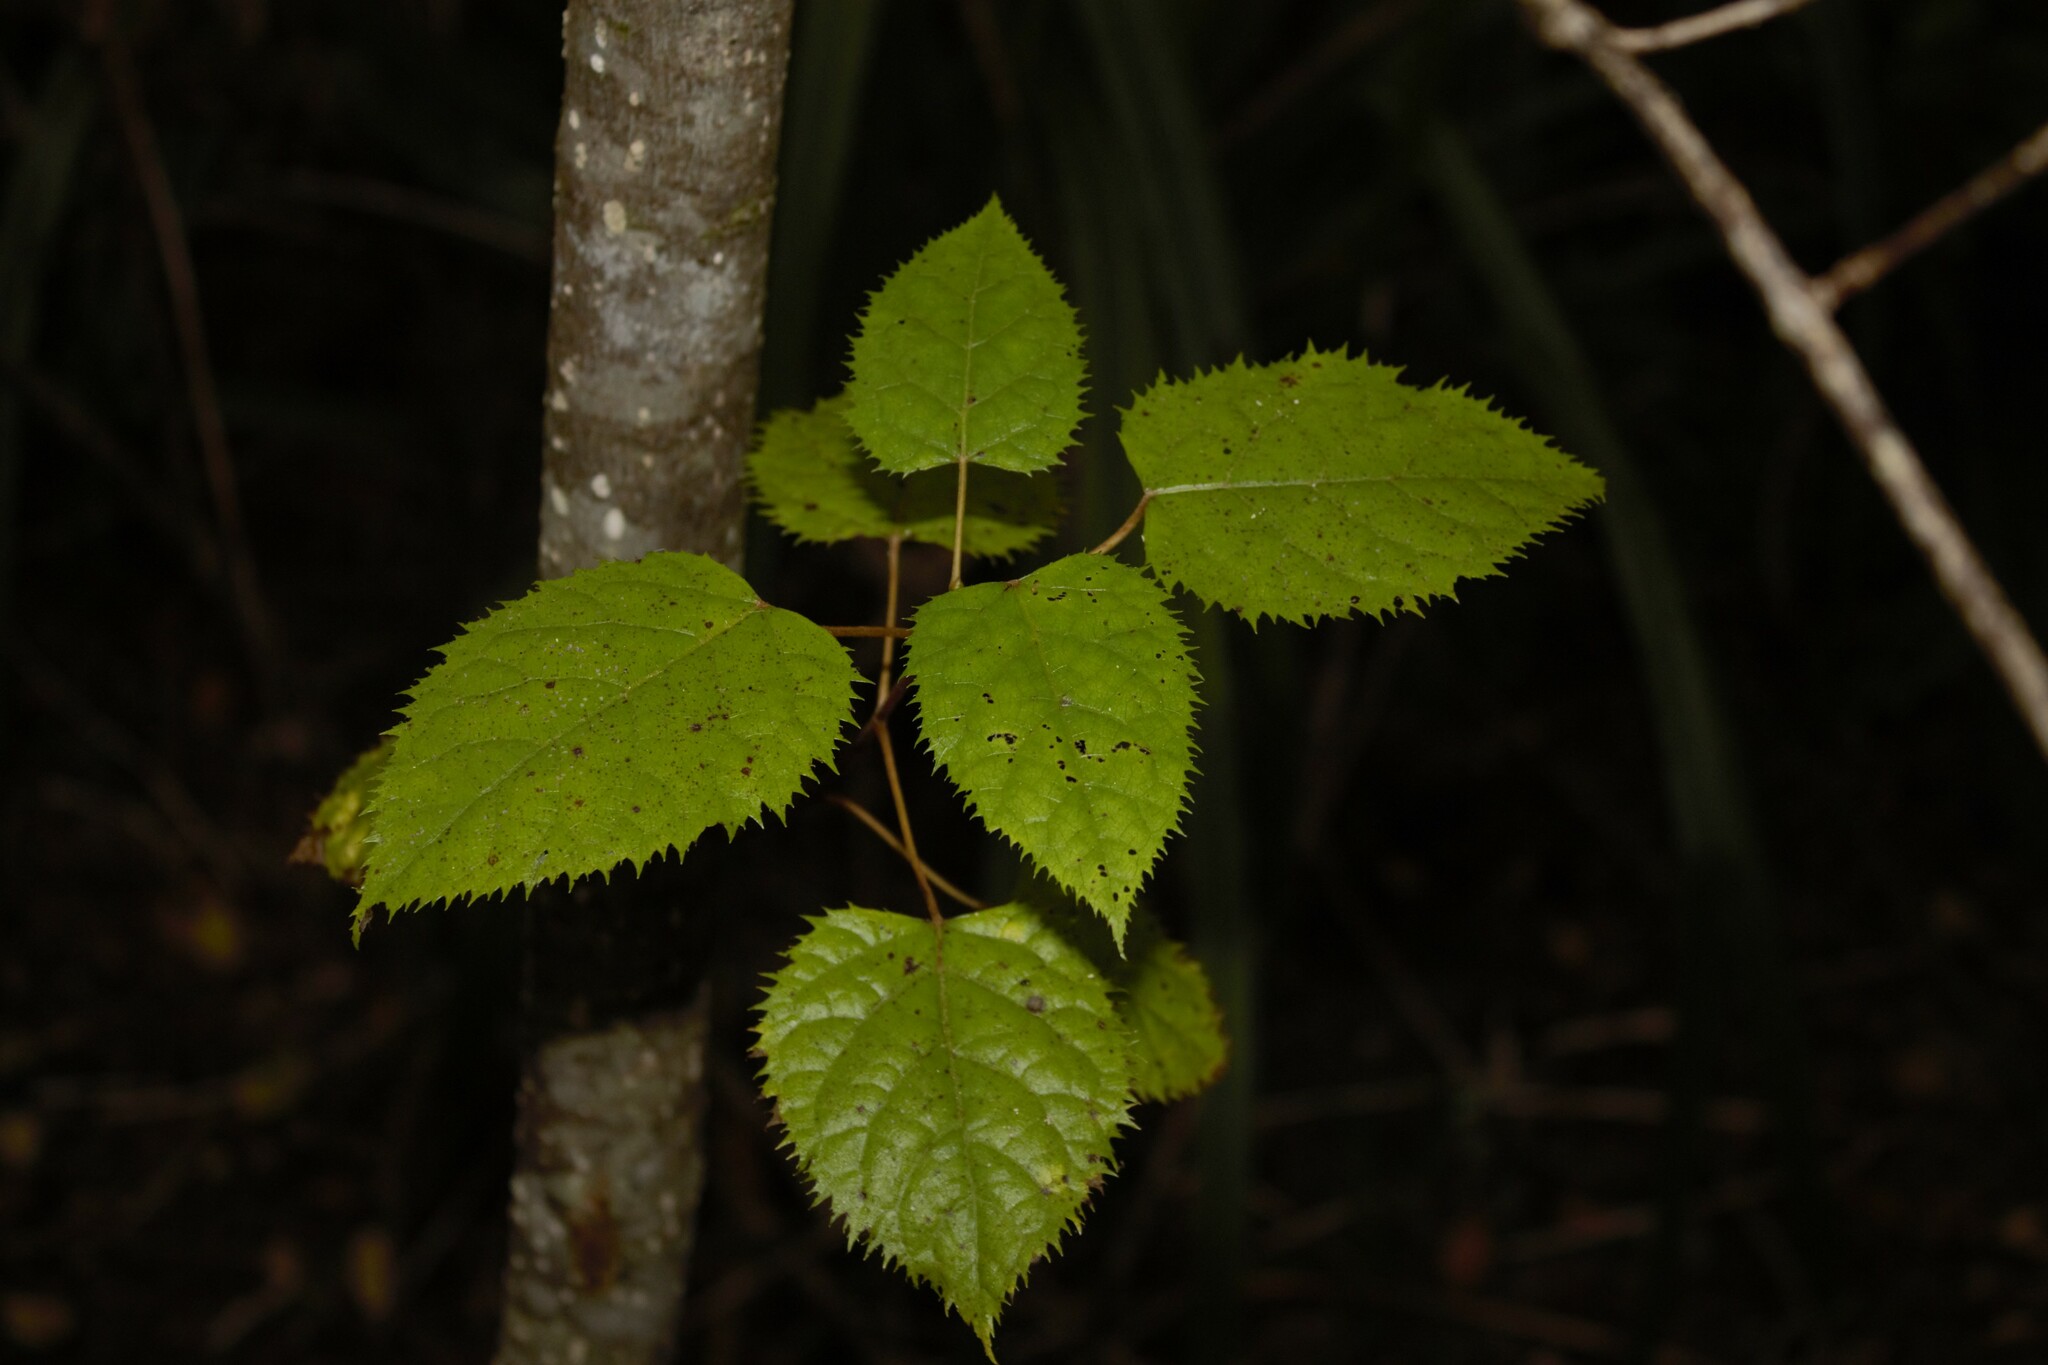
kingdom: Plantae
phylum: Tracheophyta
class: Magnoliopsida
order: Oxalidales
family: Elaeocarpaceae
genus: Aristotelia
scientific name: Aristotelia serrata
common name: New zealand wineberry
